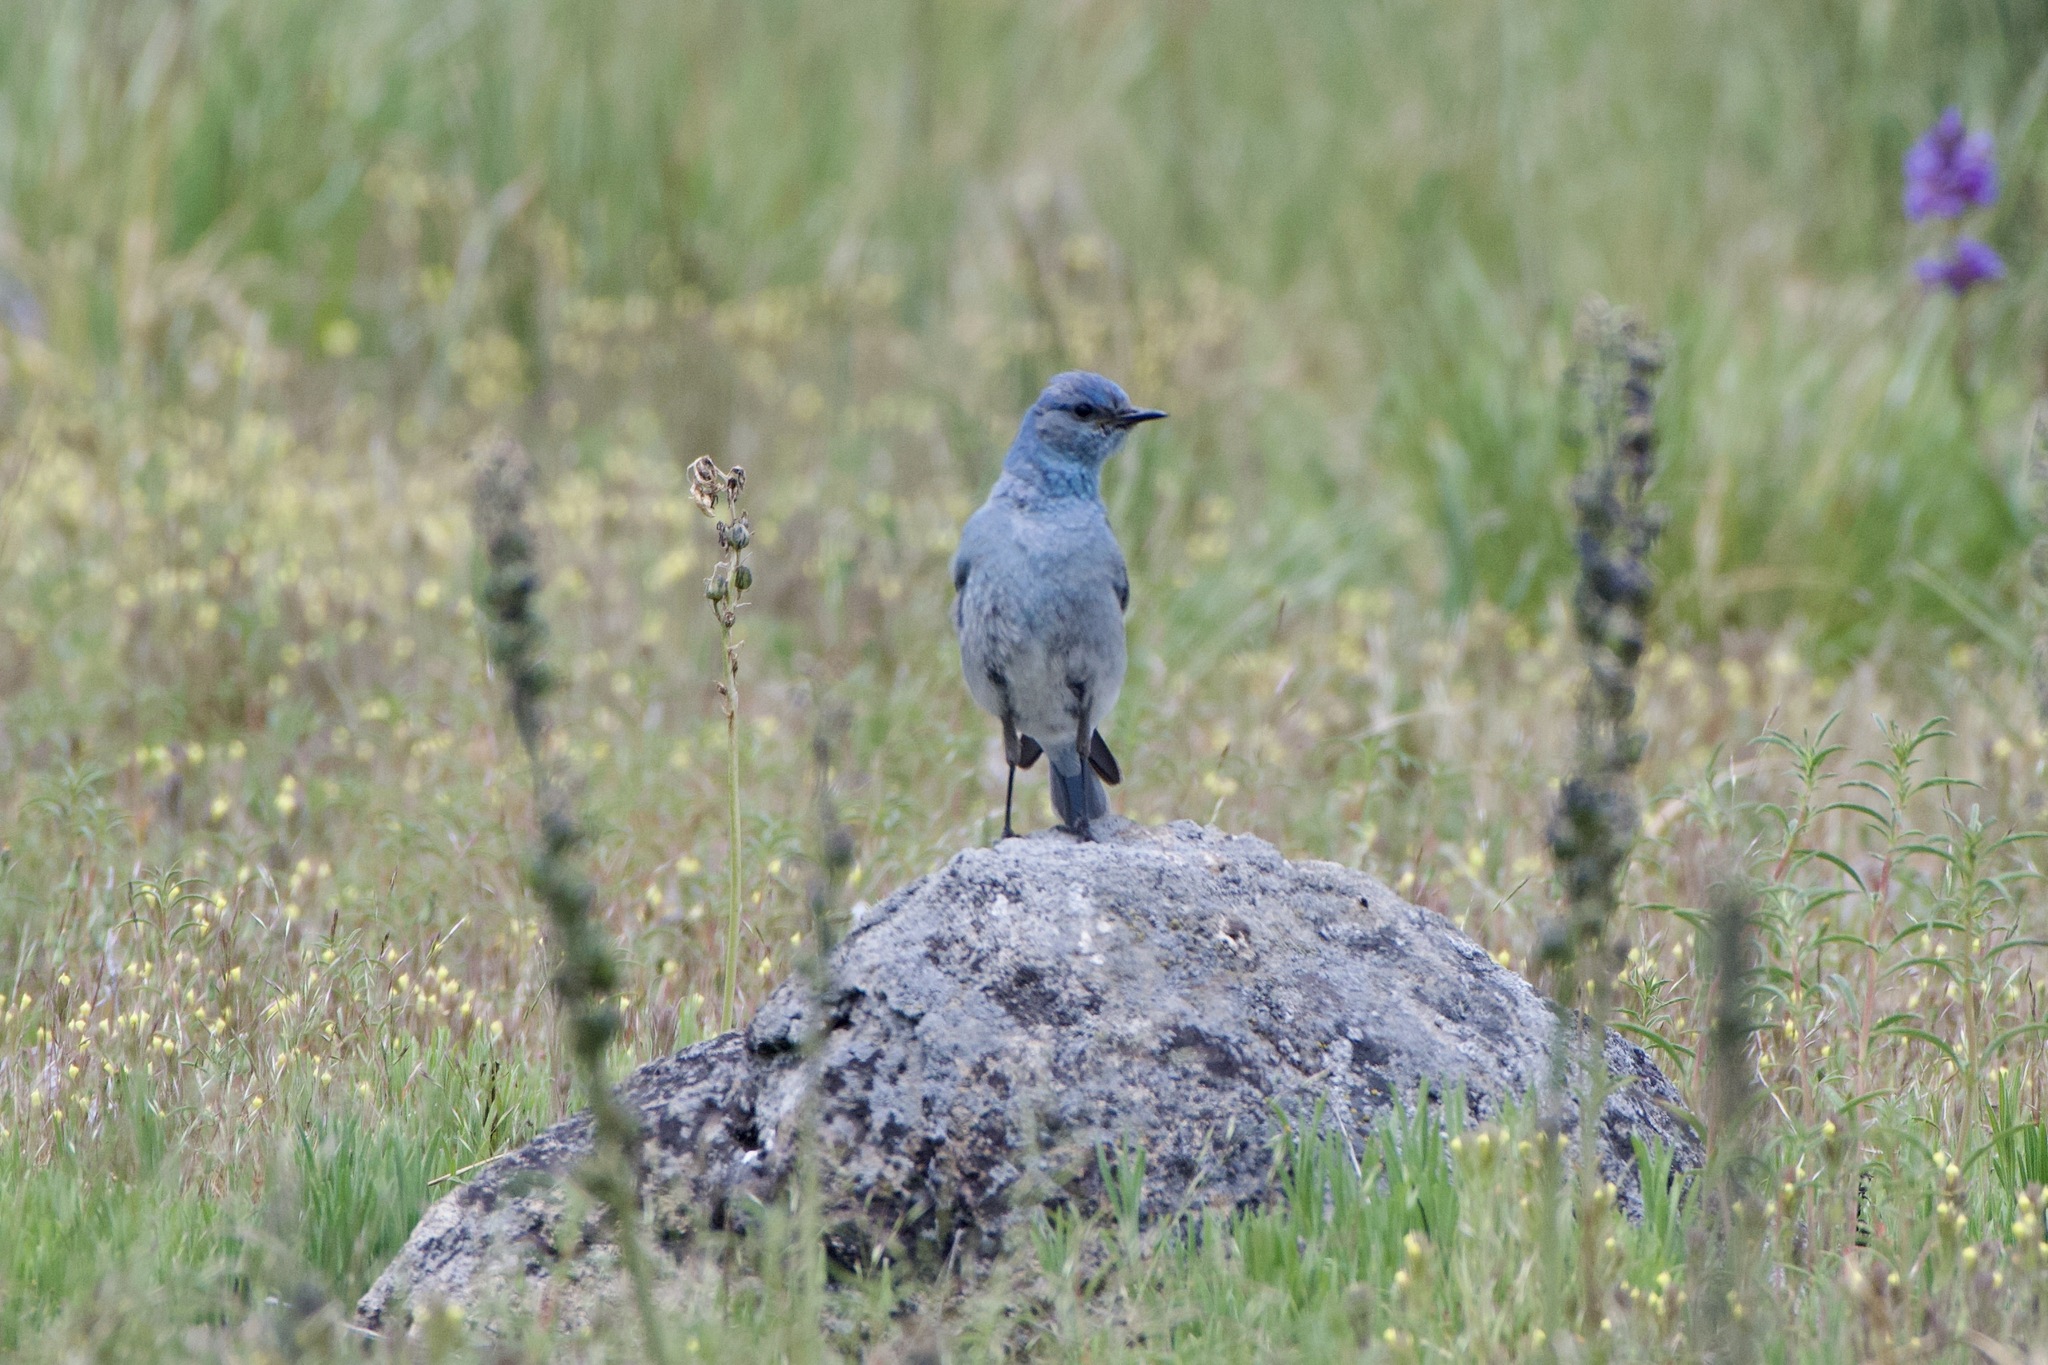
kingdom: Animalia
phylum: Chordata
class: Aves
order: Passeriformes
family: Turdidae
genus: Sialia
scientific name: Sialia currucoides
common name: Mountain bluebird
